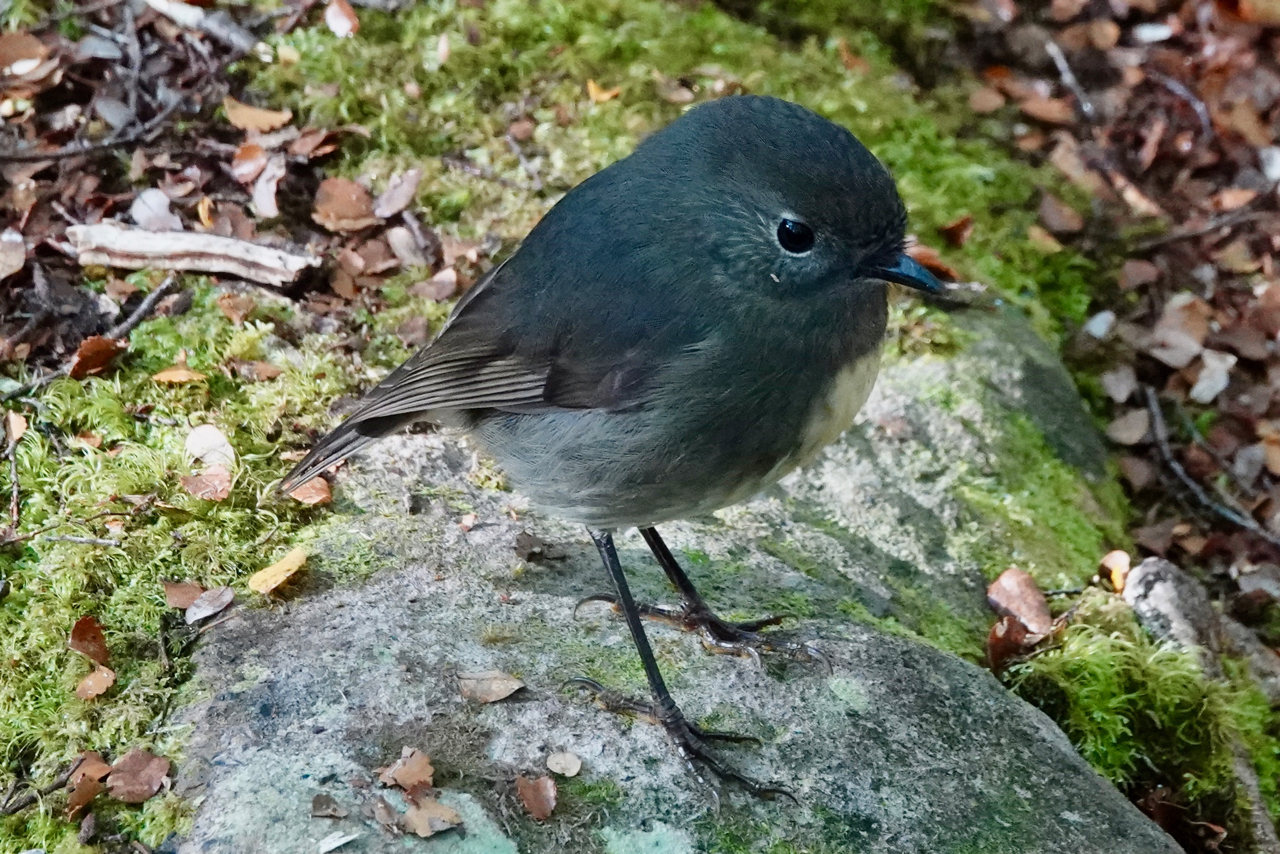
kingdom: Animalia
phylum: Chordata
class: Aves
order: Passeriformes
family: Petroicidae
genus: Petroica
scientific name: Petroica australis
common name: New zealand robin
